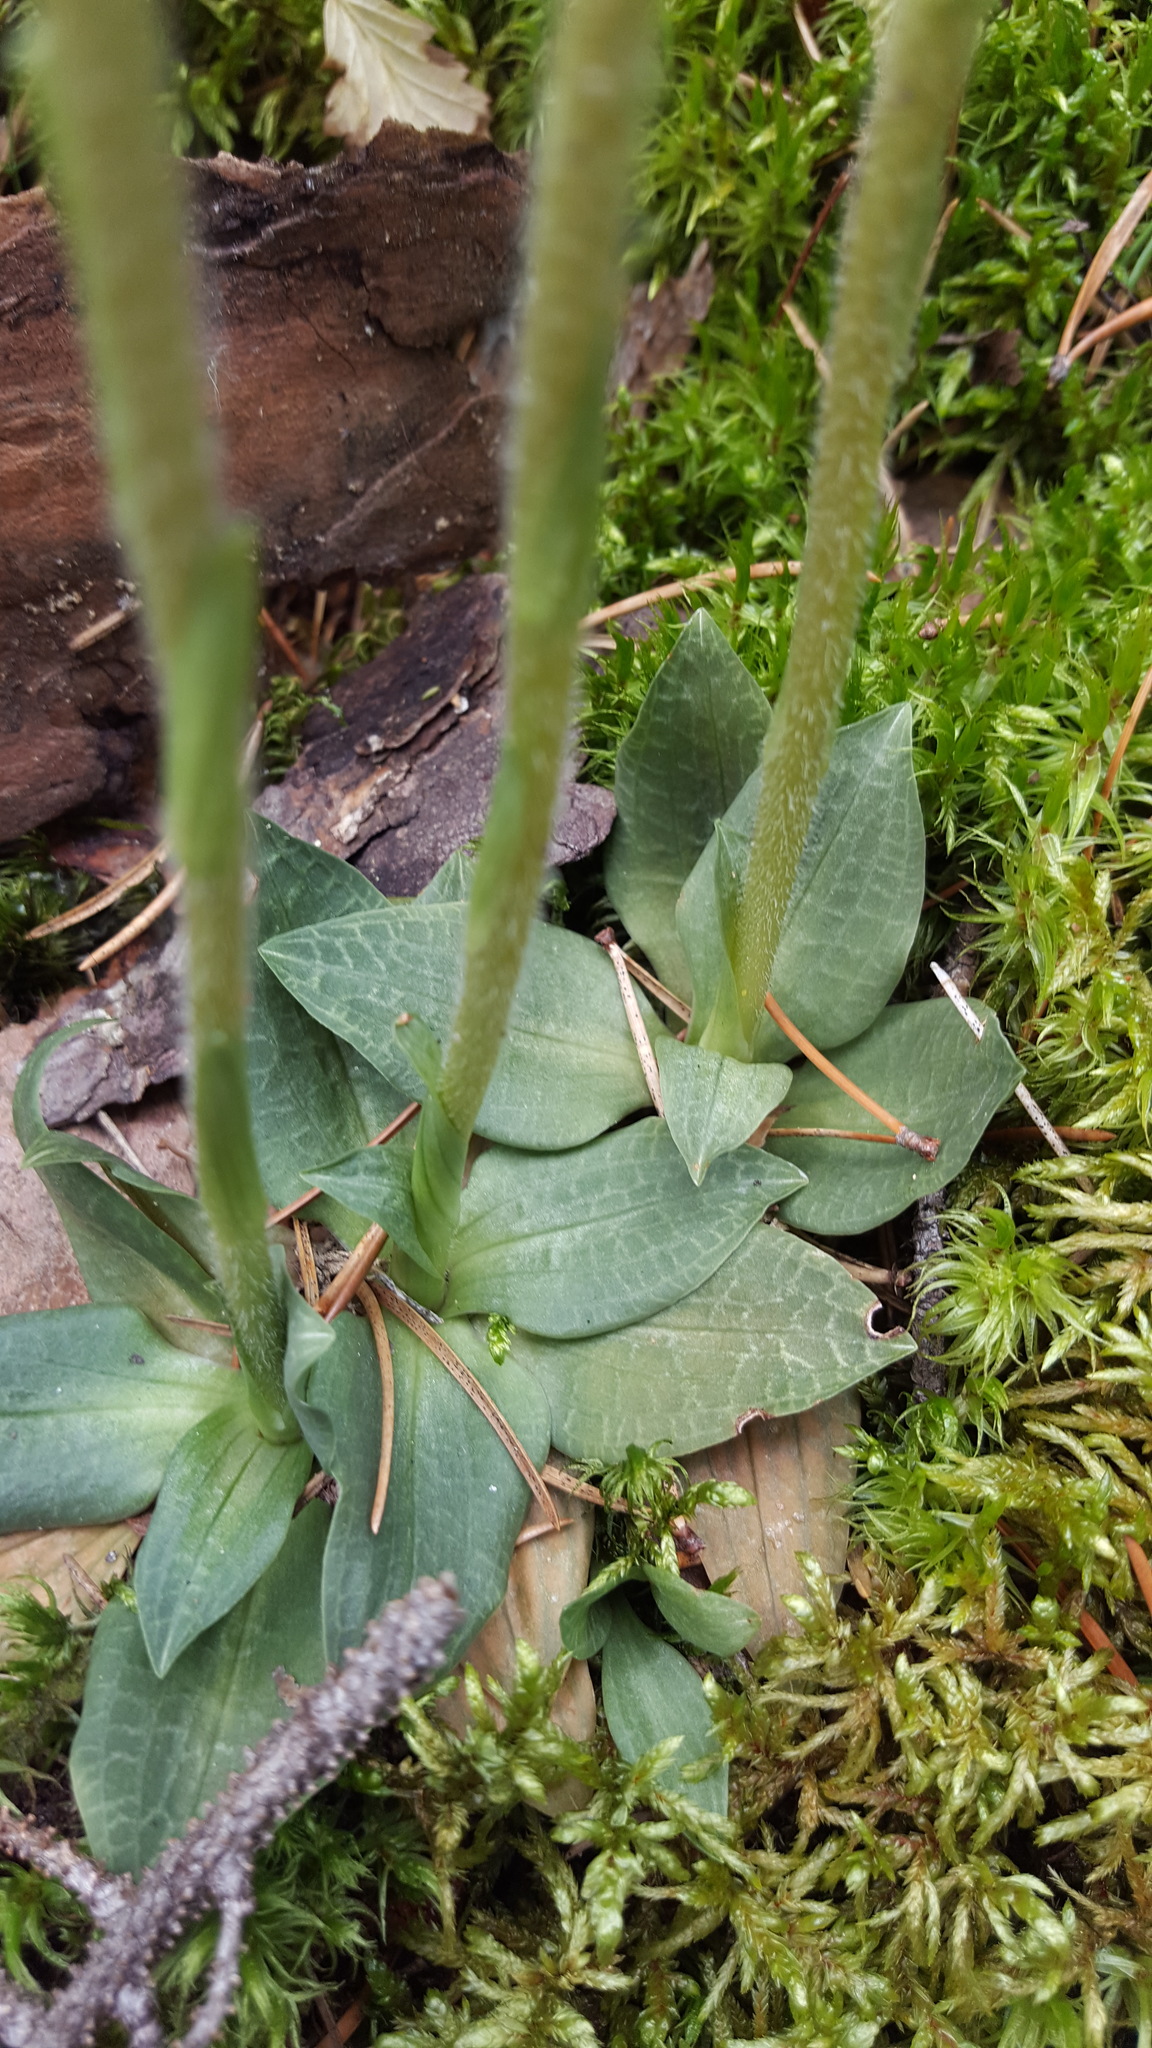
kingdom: Plantae
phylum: Tracheophyta
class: Liliopsida
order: Asparagales
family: Orchidaceae
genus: Goodyera
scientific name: Goodyera tesselata
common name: Checkered rattlesnake-plantain
